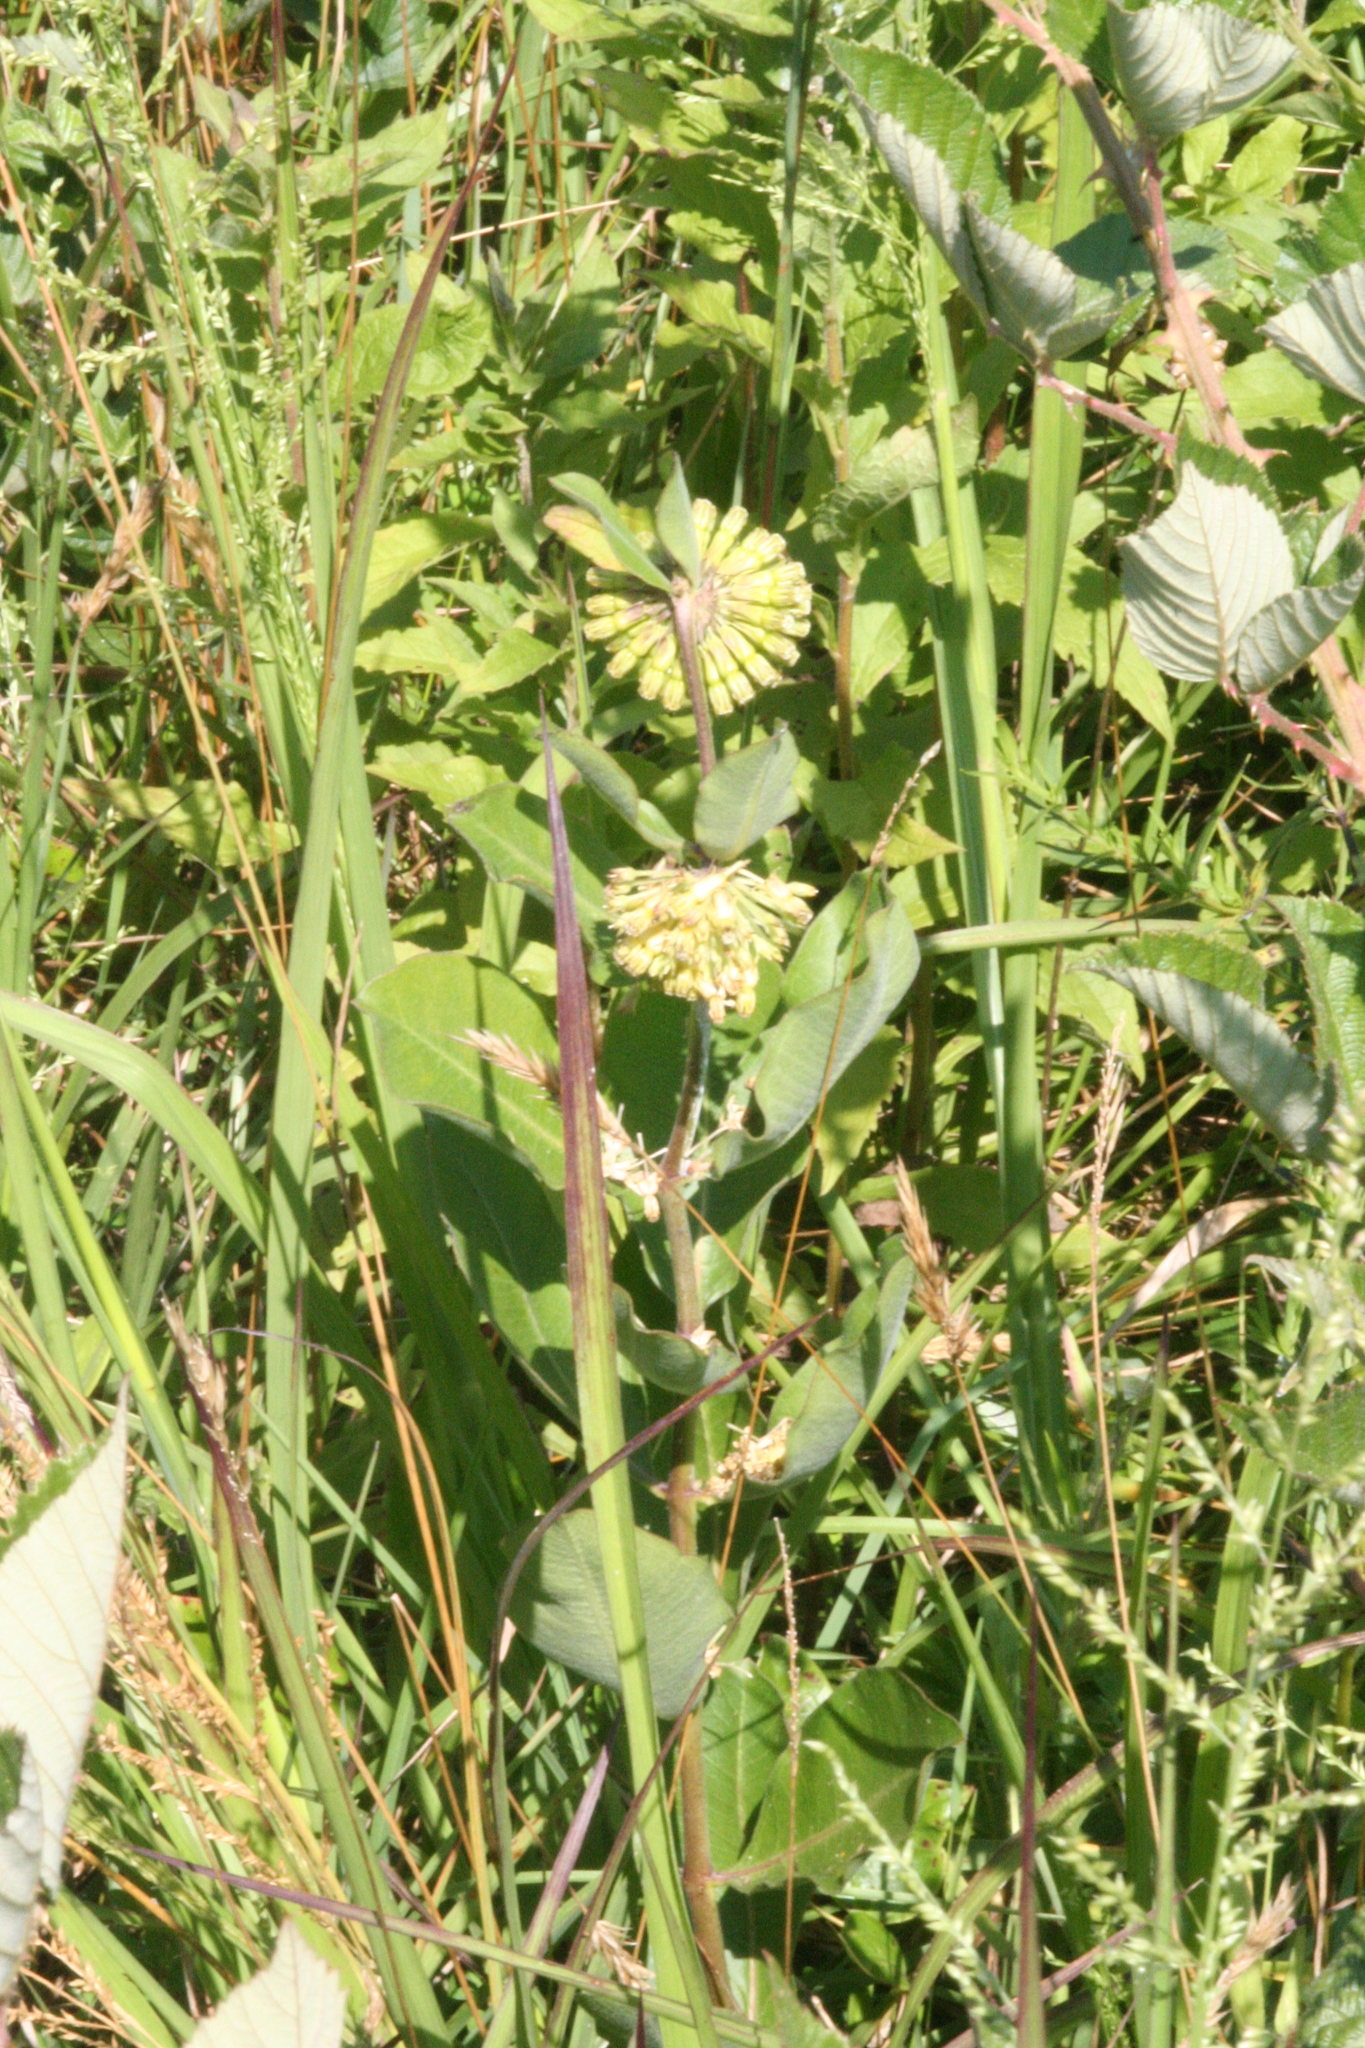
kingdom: Plantae
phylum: Tracheophyta
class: Magnoliopsida
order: Gentianales
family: Apocynaceae
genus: Asclepias
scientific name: Asclepias viridiflora
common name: Green comet milkweed
